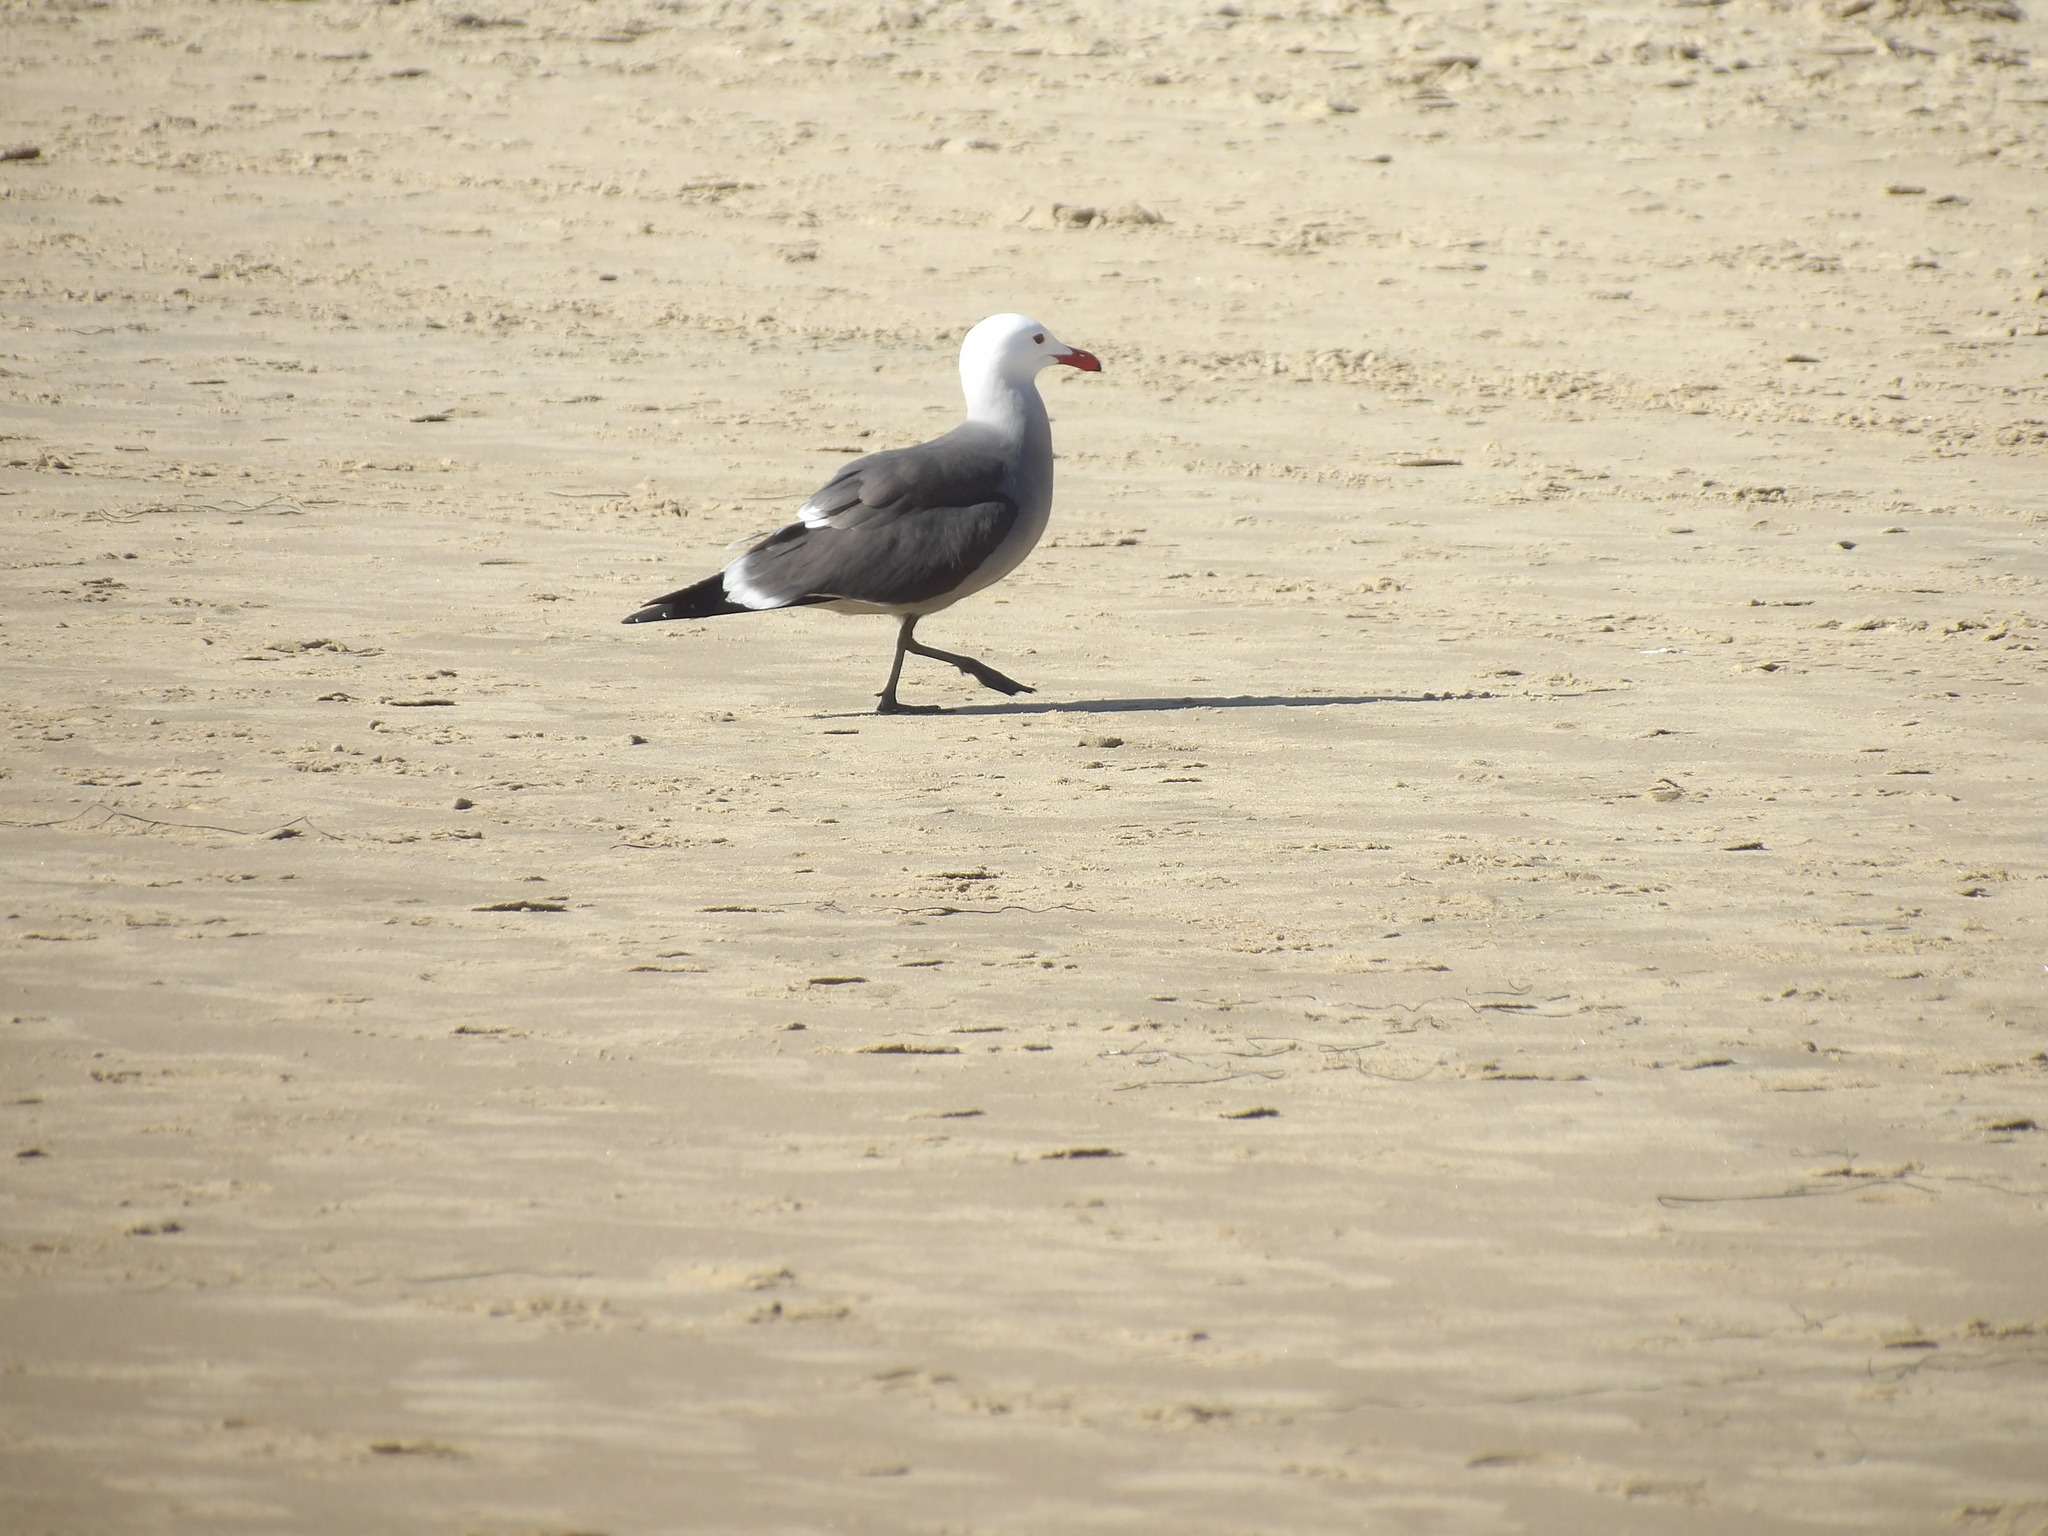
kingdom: Animalia
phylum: Chordata
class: Aves
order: Charadriiformes
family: Laridae
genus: Larus
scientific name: Larus heermanni
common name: Heermann's gull
